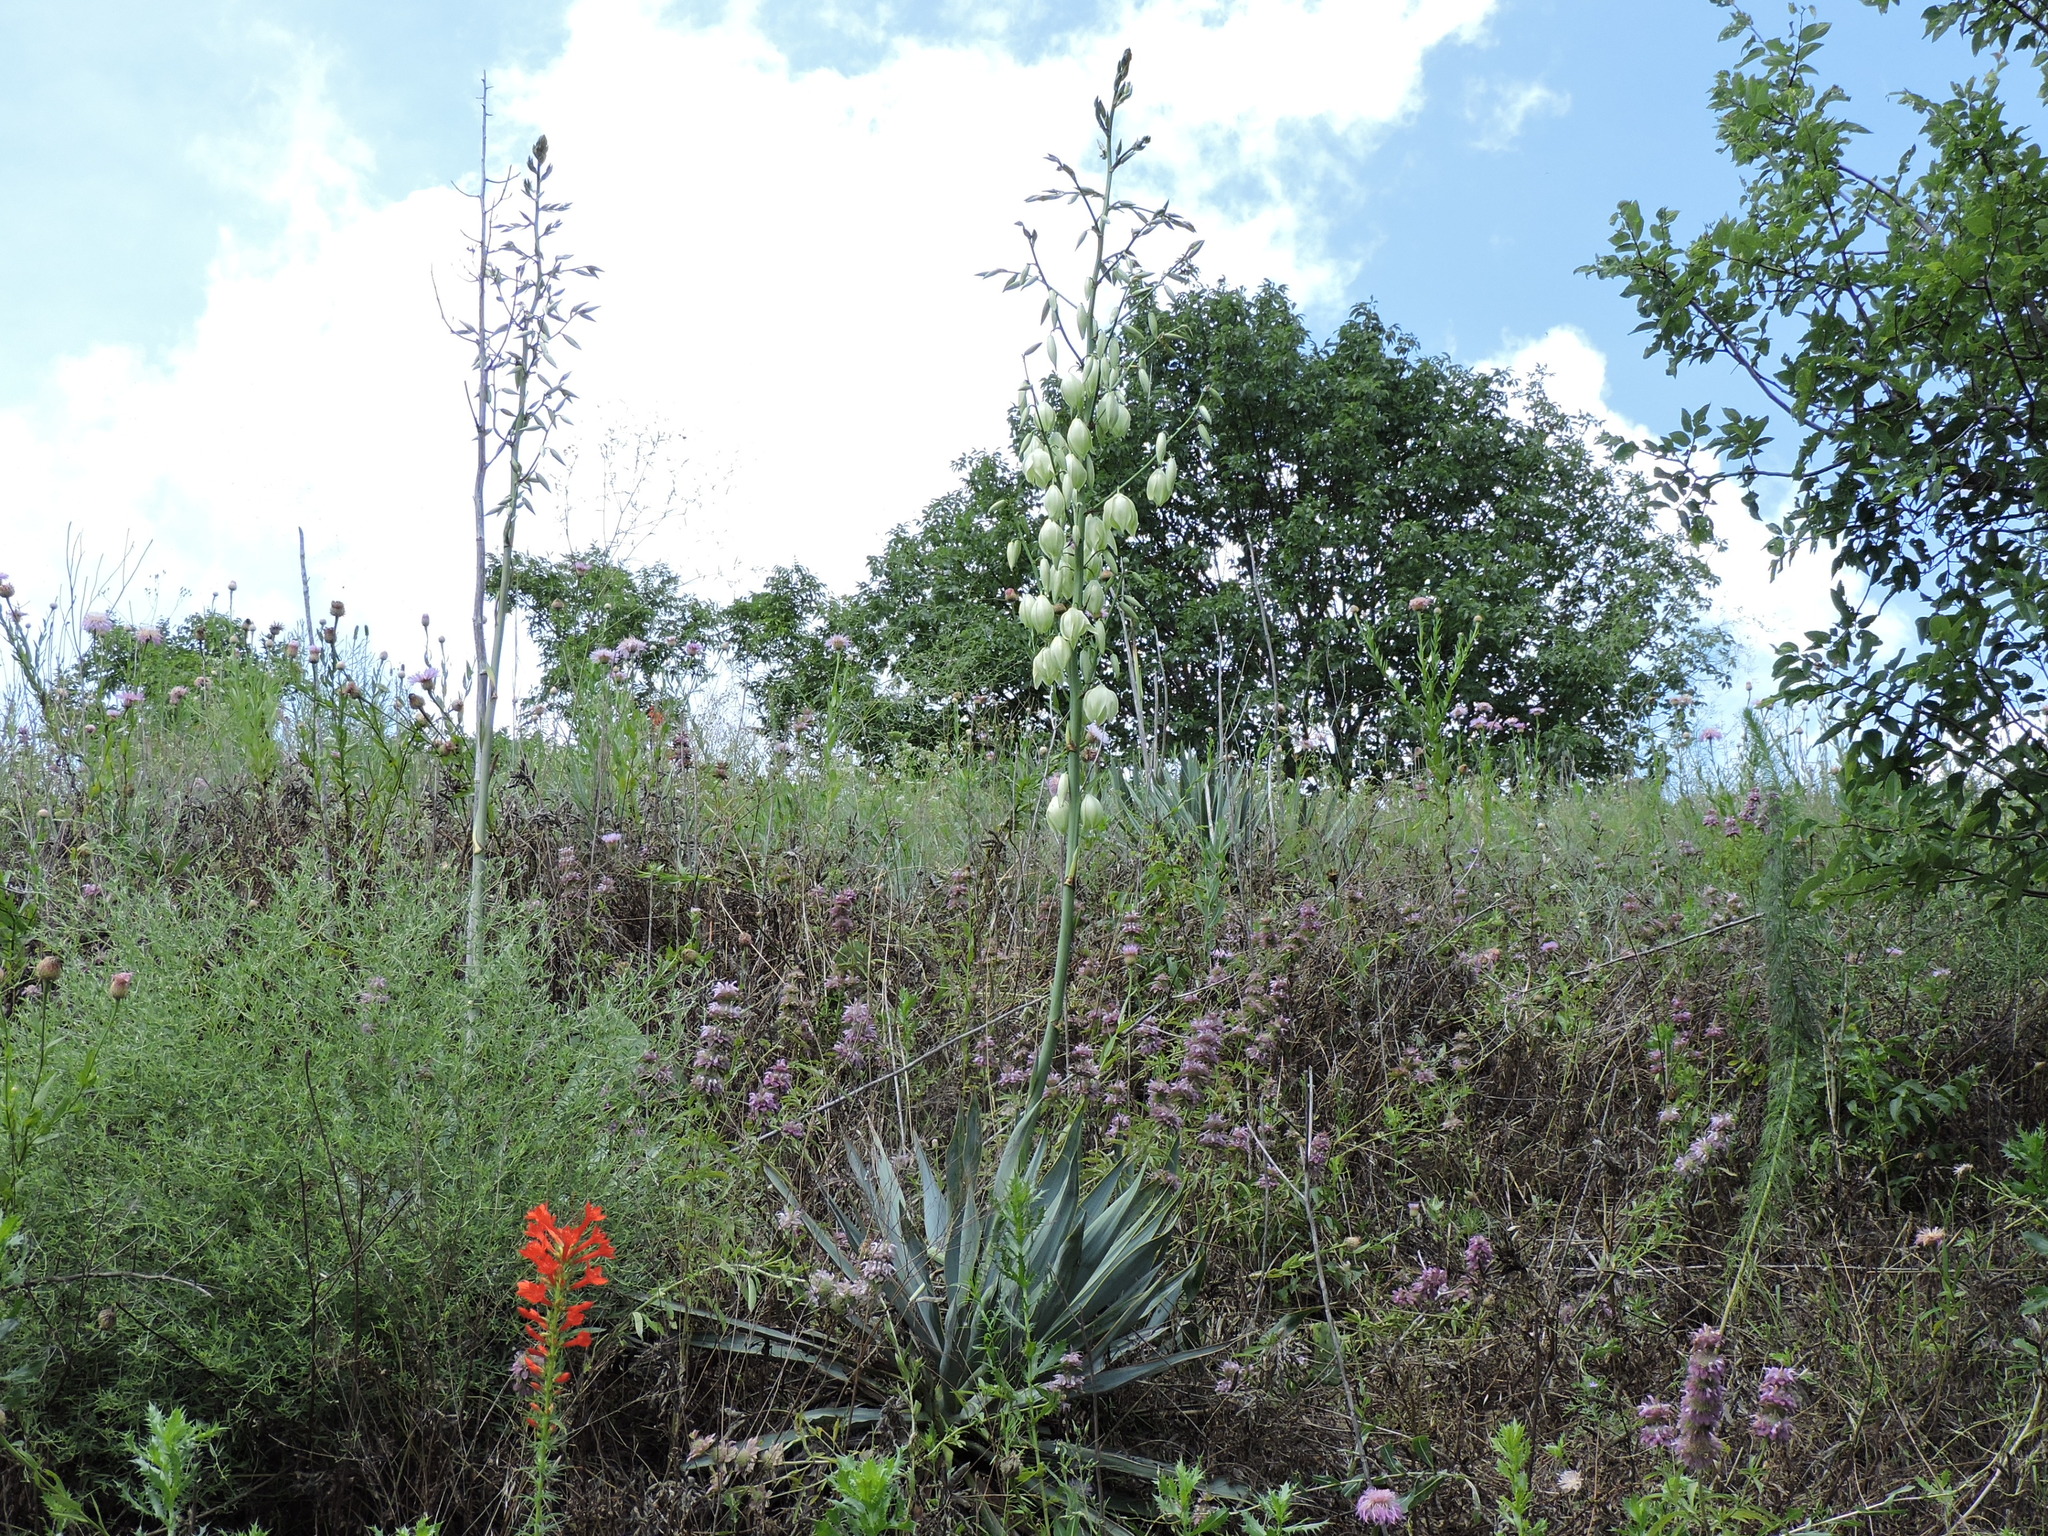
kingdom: Plantae
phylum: Tracheophyta
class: Liliopsida
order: Asparagales
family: Asparagaceae
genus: Yucca
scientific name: Yucca pallida
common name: Pale leaf yucca
